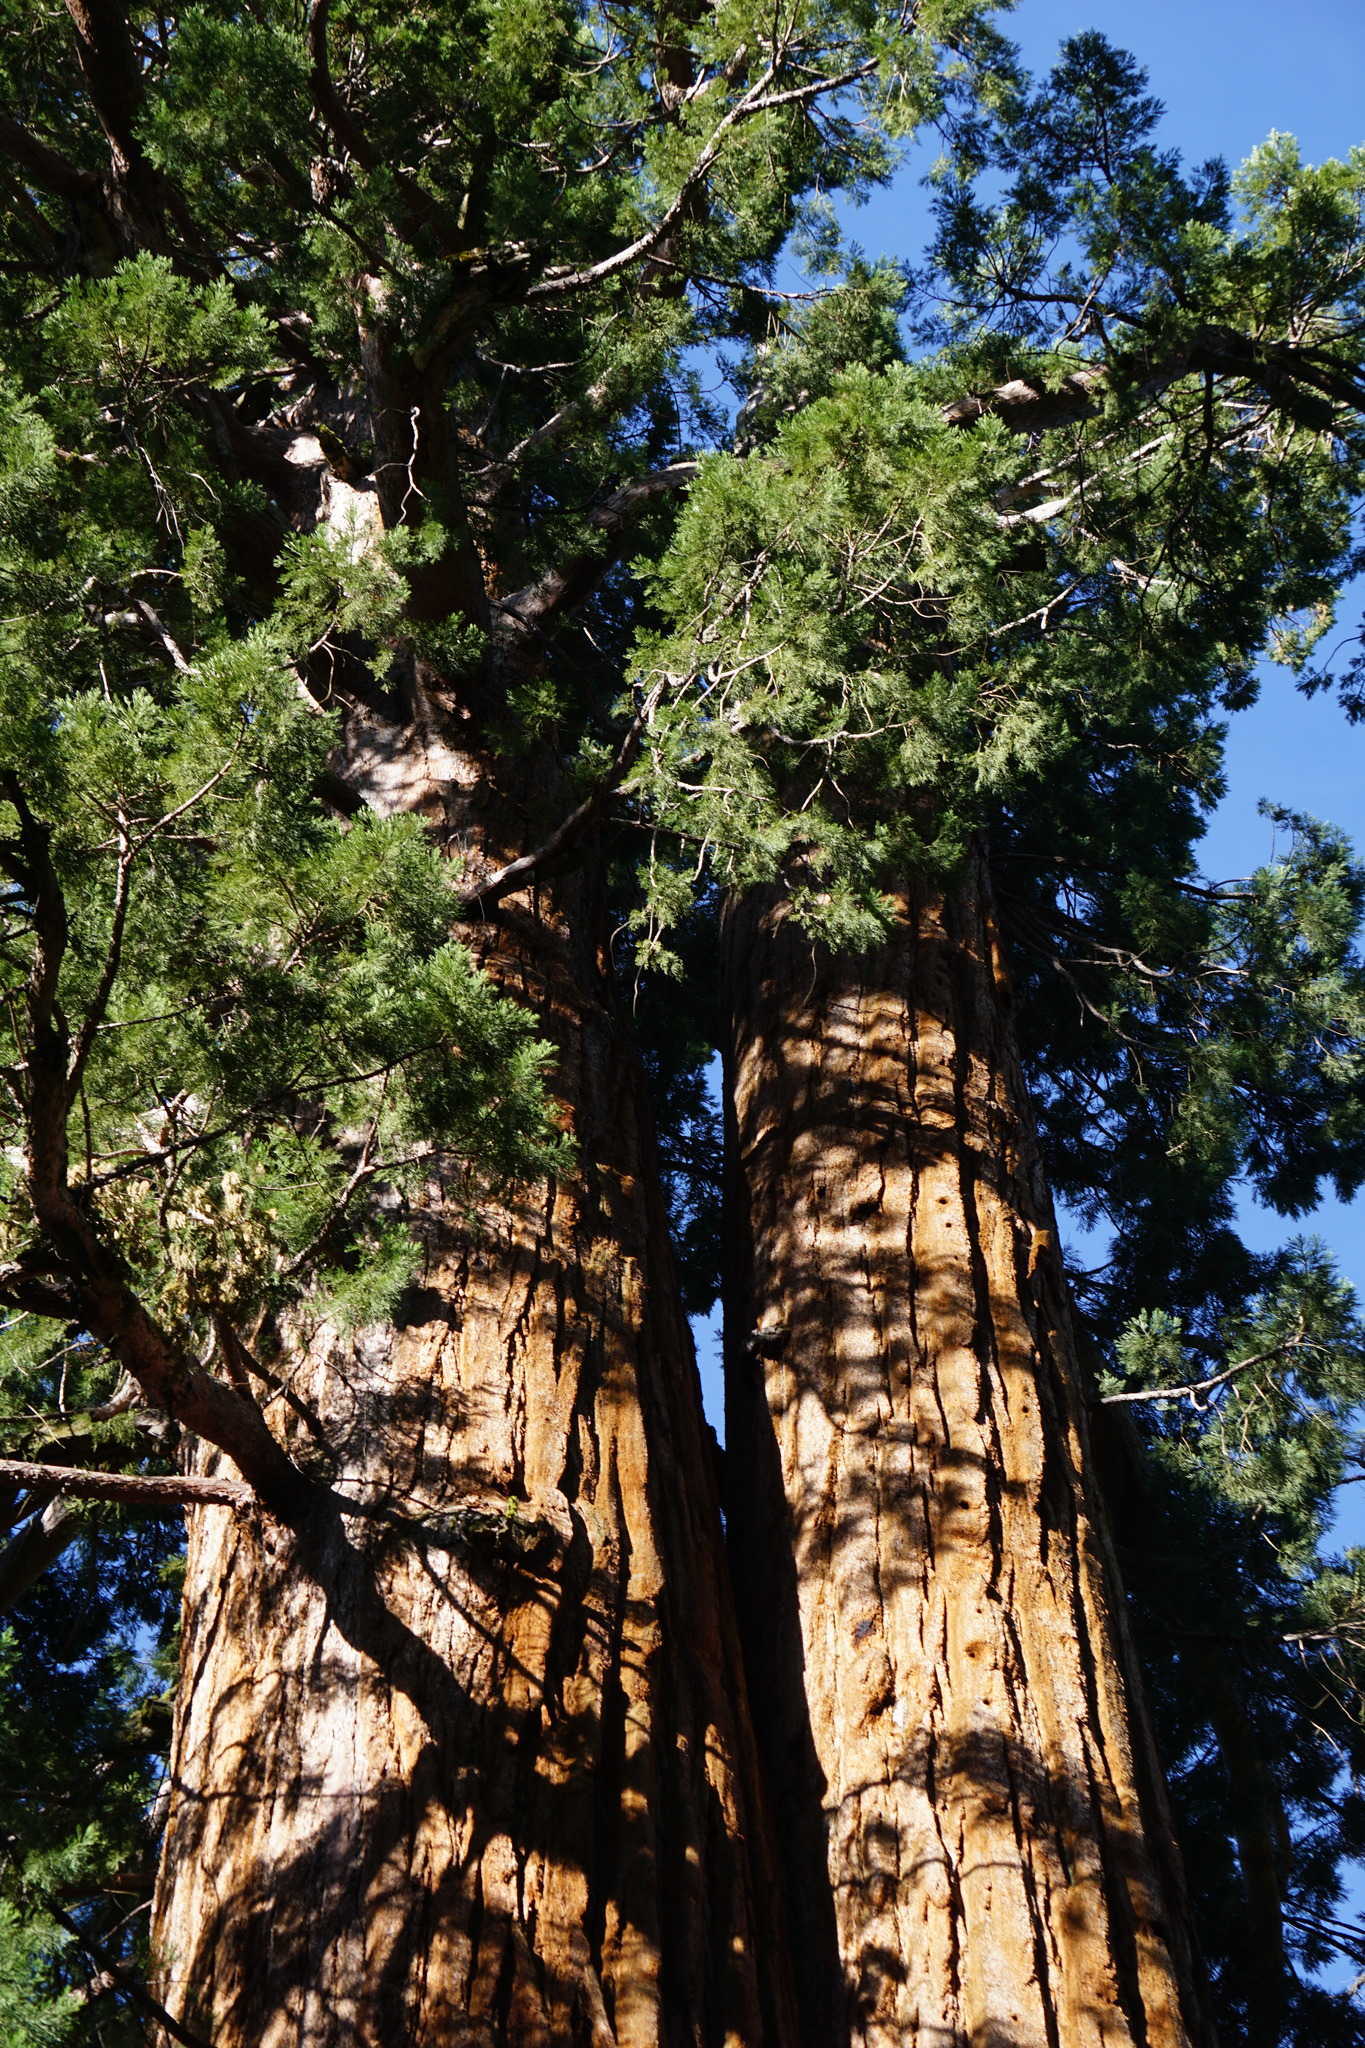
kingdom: Plantae
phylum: Tracheophyta
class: Pinopsida
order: Pinales
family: Cupressaceae
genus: Sequoiadendron
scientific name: Sequoiadendron giganteum
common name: Wellingtonia
